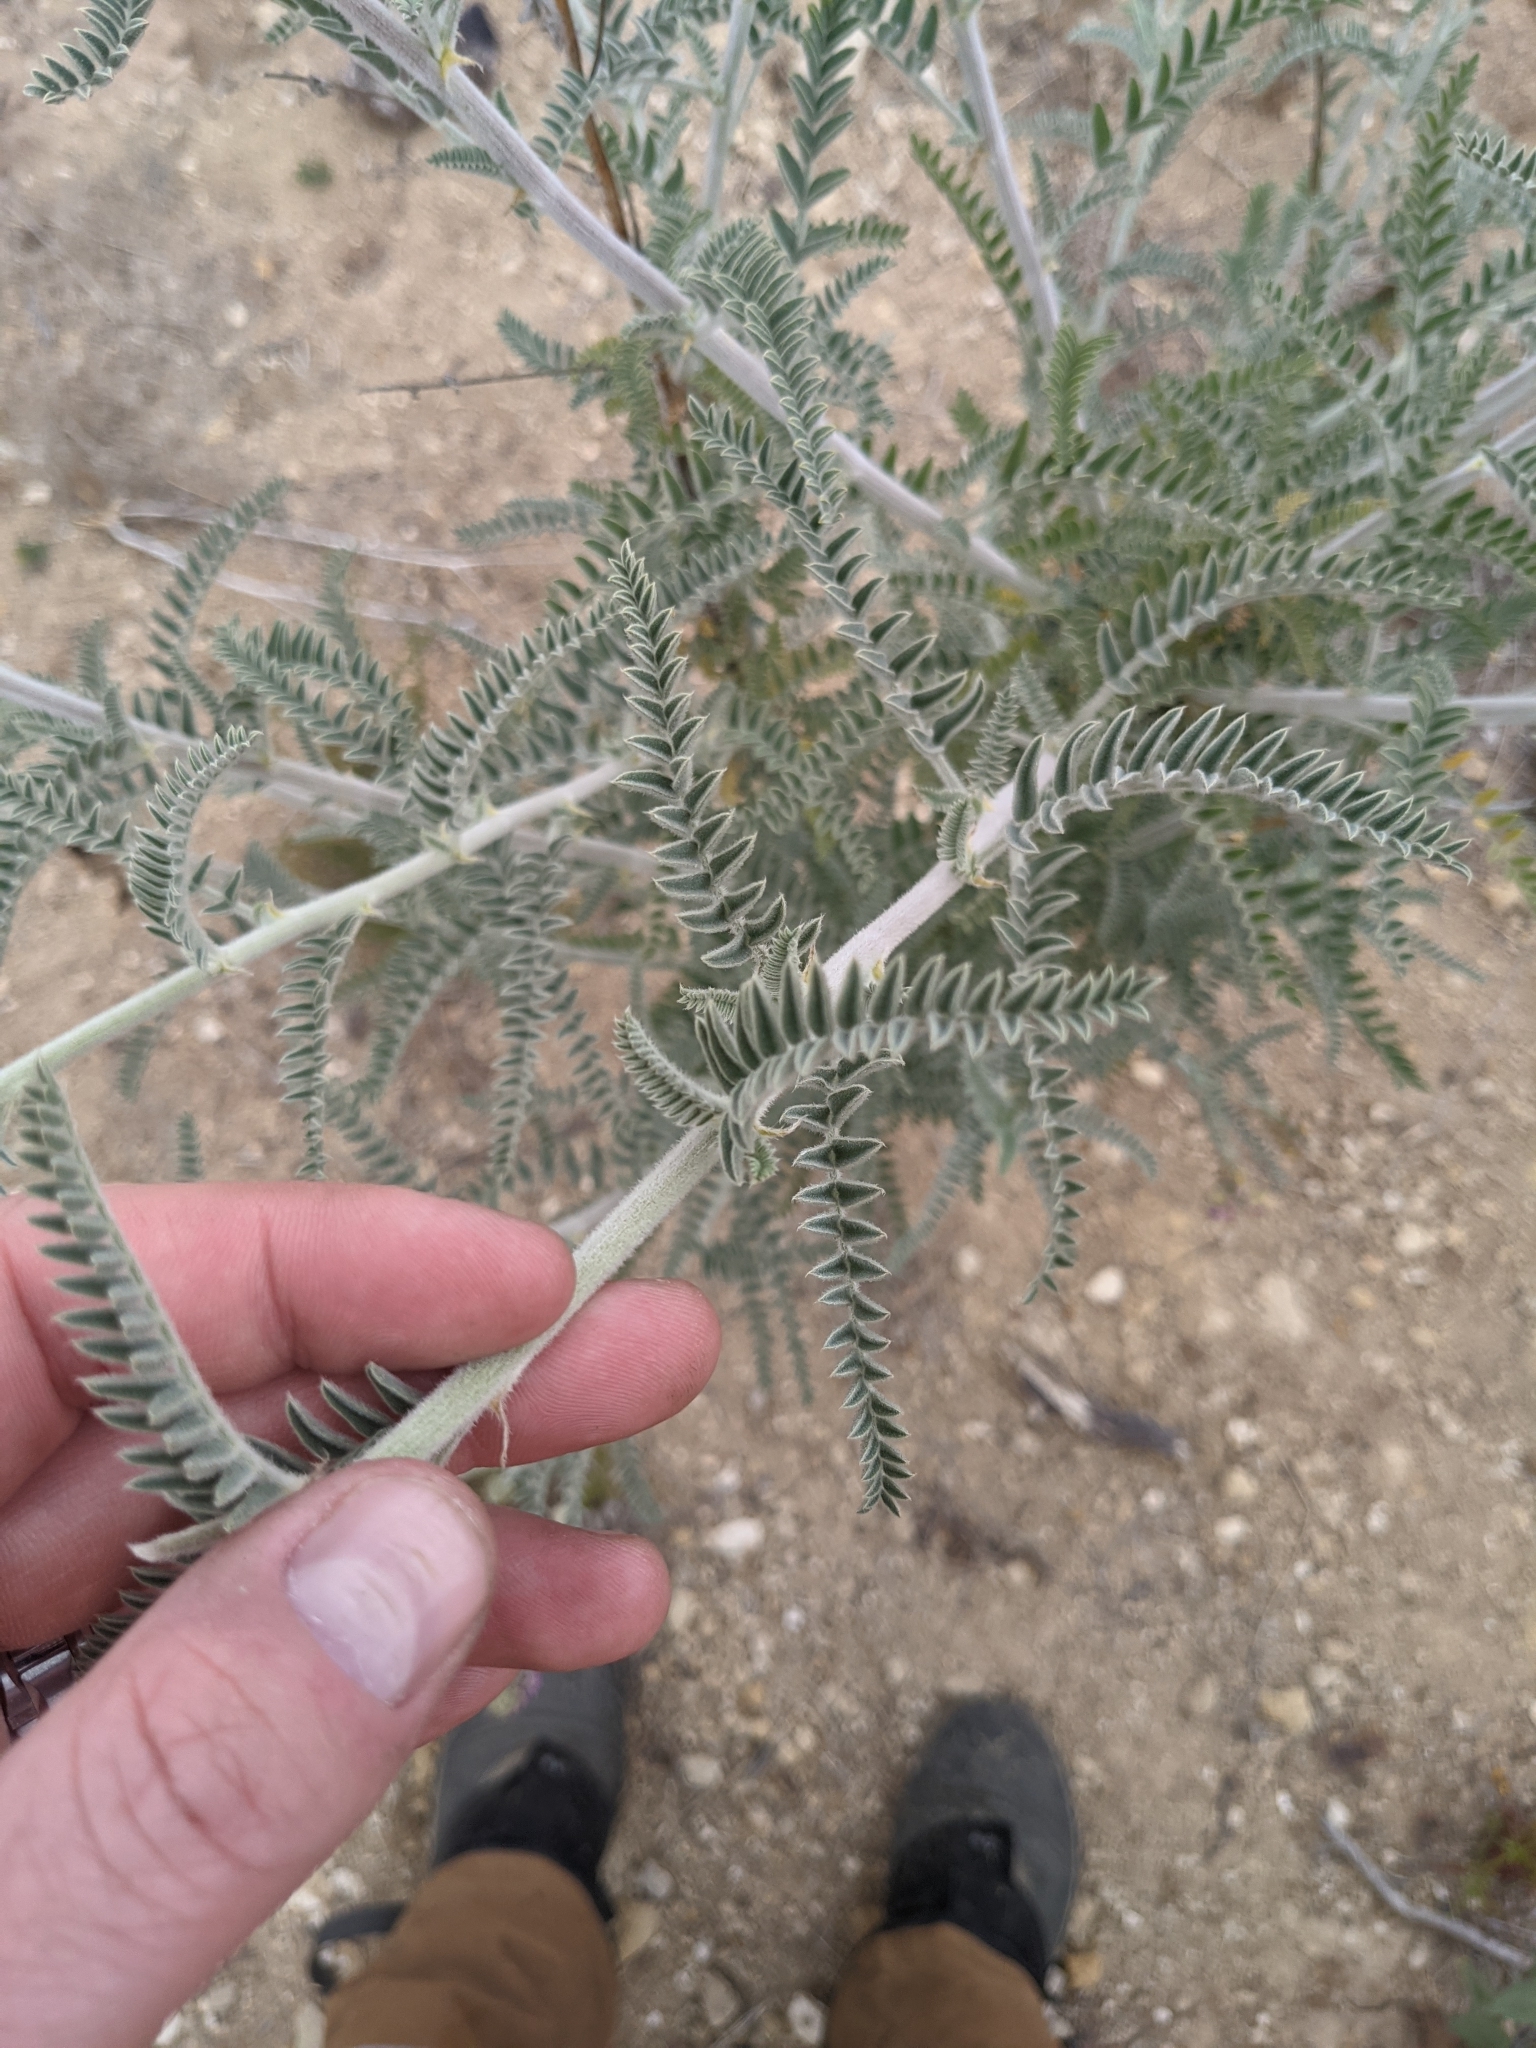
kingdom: Plantae
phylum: Tracheophyta
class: Magnoliopsida
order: Fabales
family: Fabaceae
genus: Astragalus
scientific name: Astragalus brauntonii
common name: Braunton's milk-vetch
